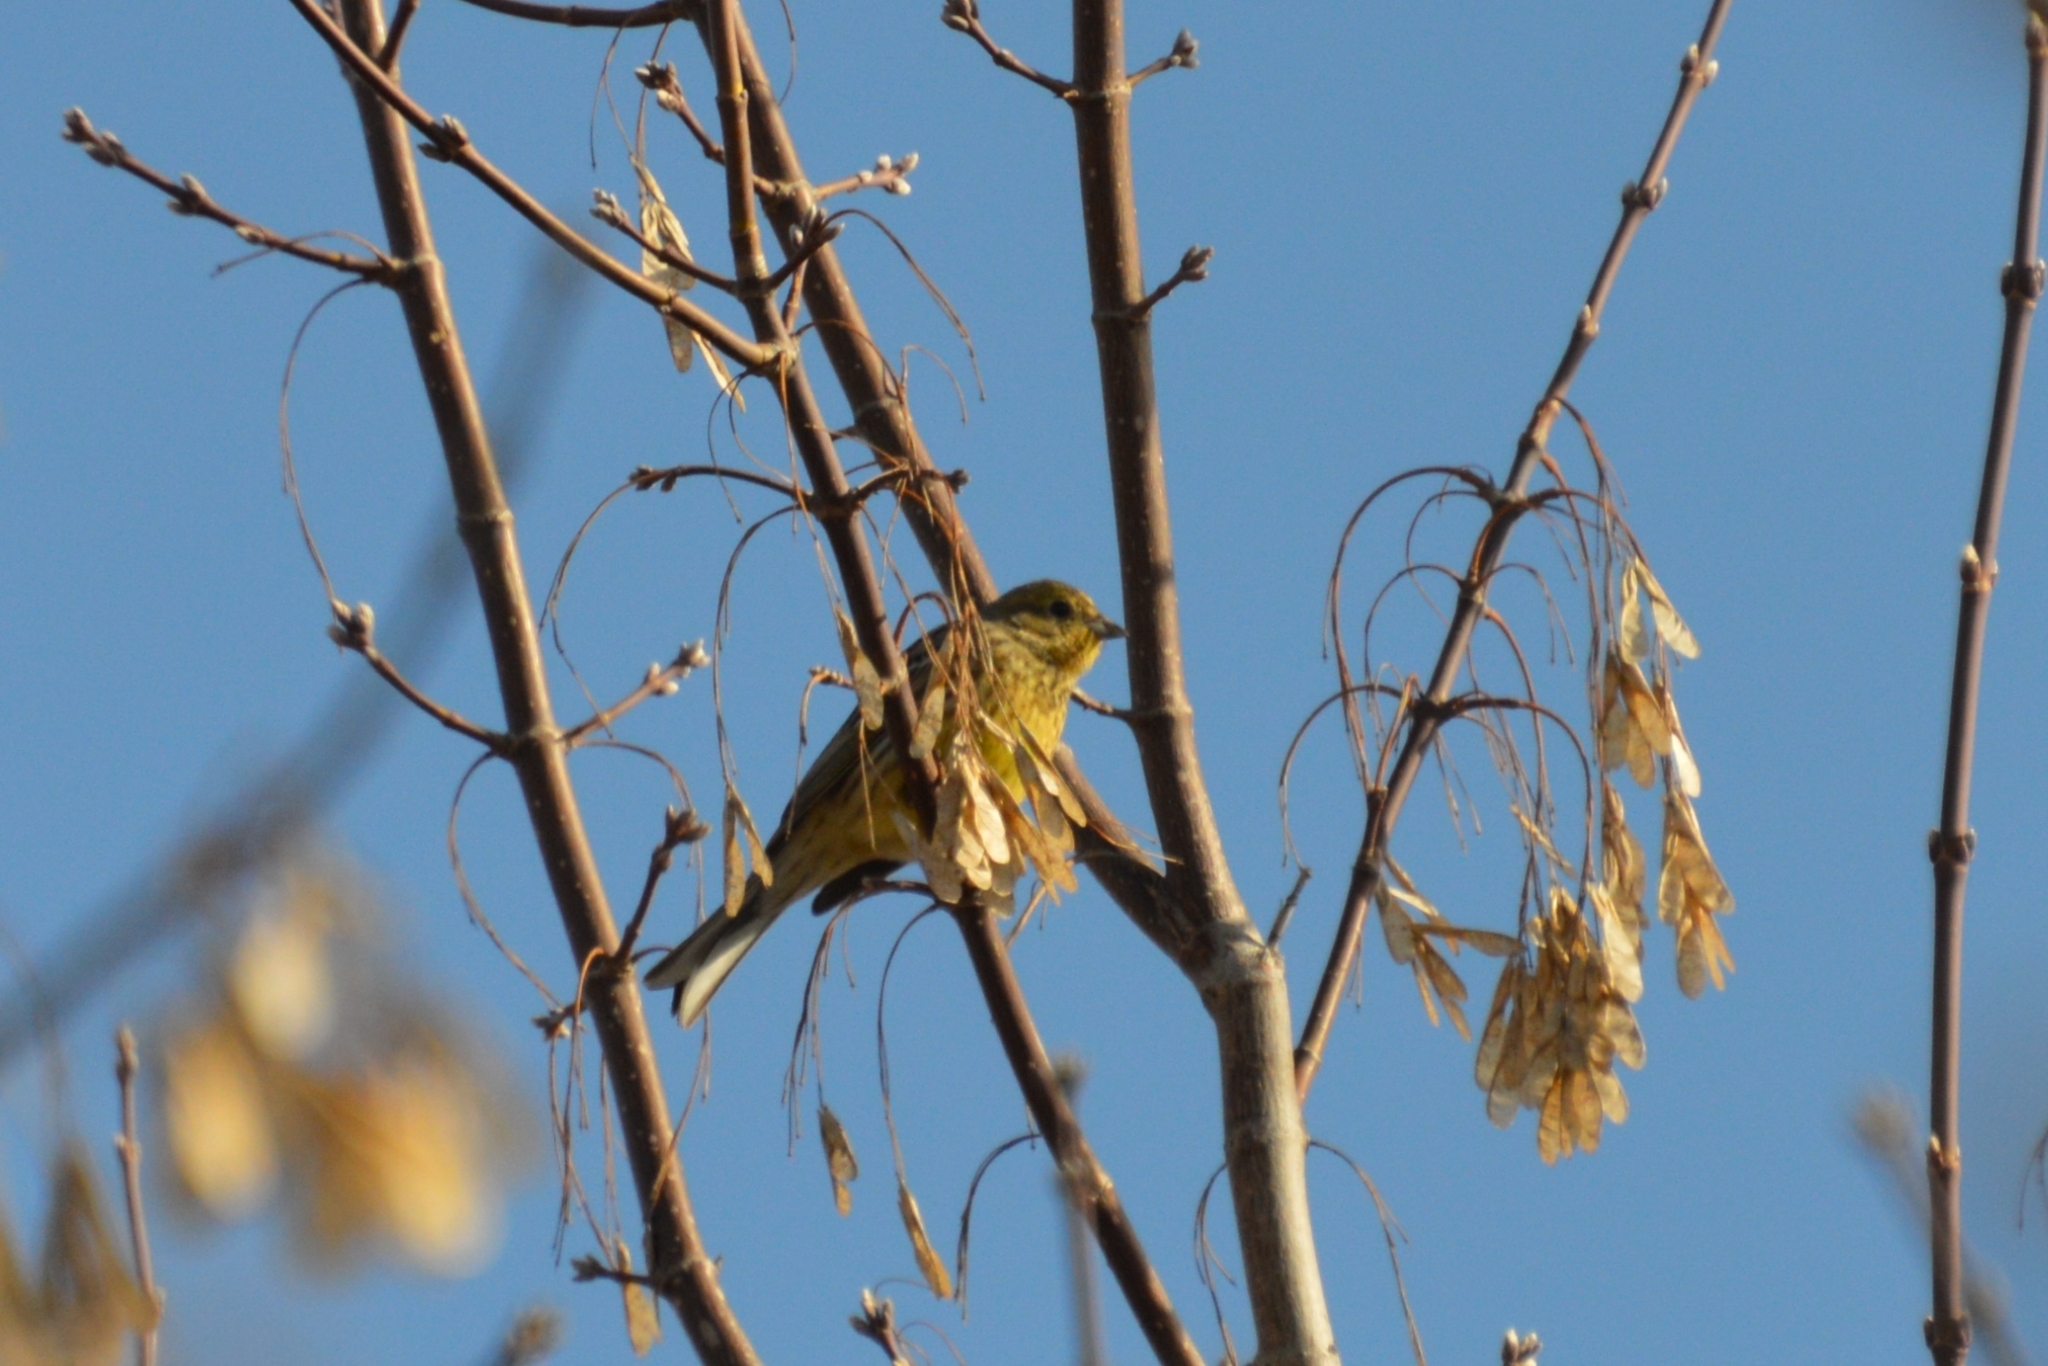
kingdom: Animalia
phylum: Chordata
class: Aves
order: Passeriformes
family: Emberizidae
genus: Emberiza
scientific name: Emberiza citrinella
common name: Yellowhammer
